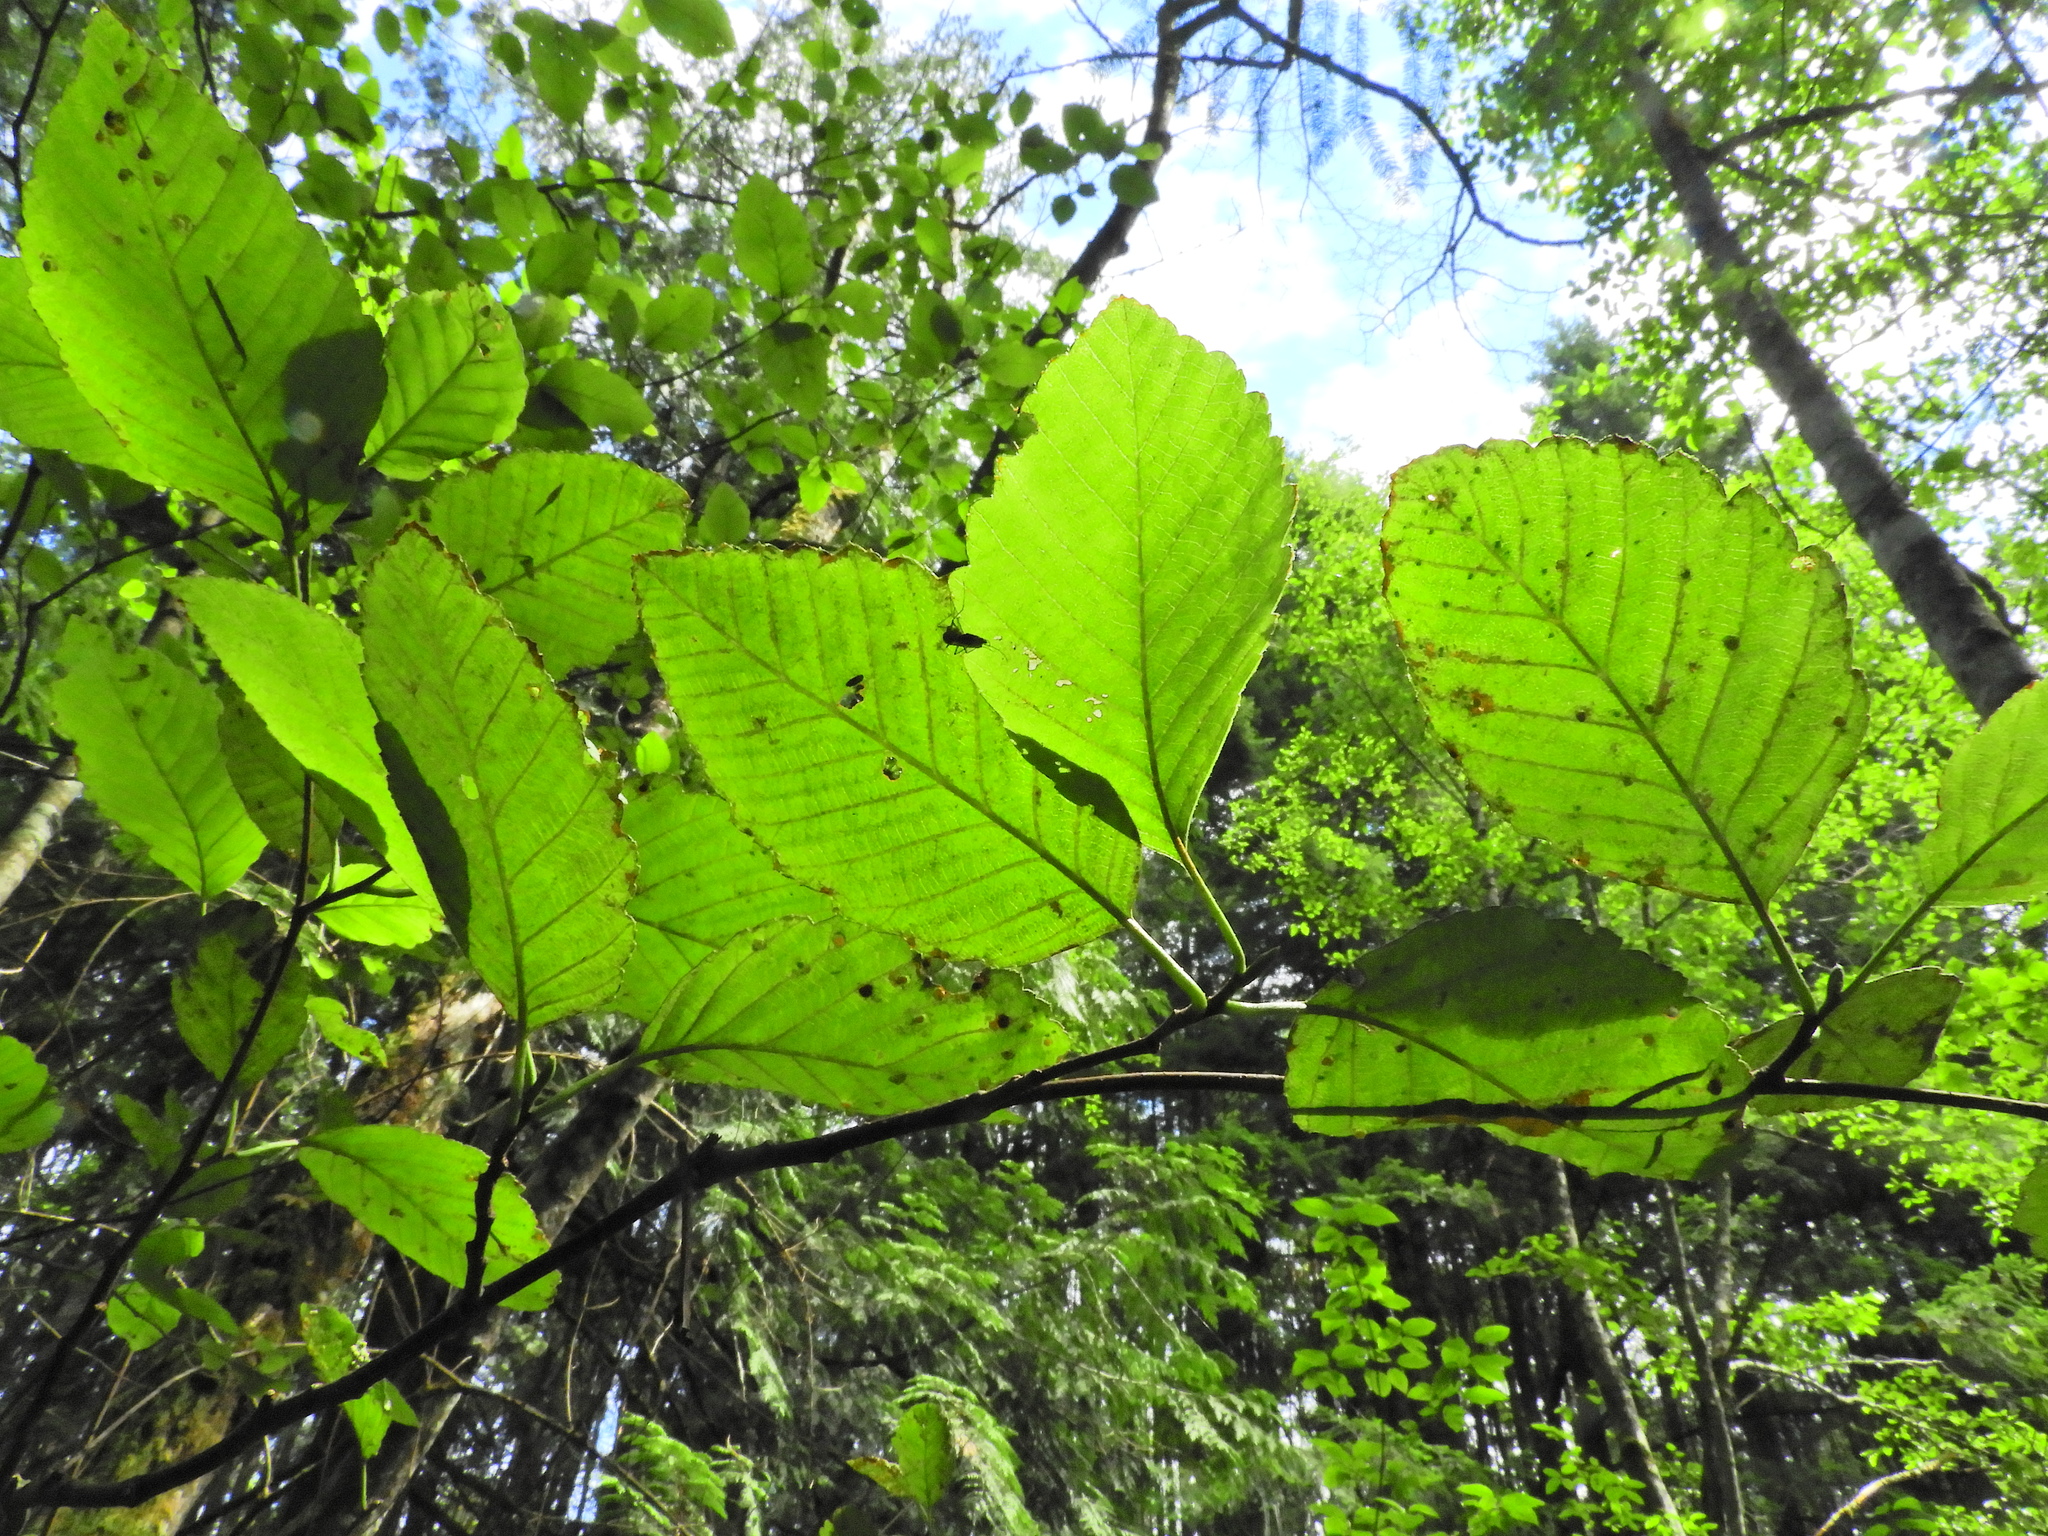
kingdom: Plantae
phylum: Tracheophyta
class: Magnoliopsida
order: Fagales
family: Betulaceae
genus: Alnus
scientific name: Alnus rubra
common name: Red alder
